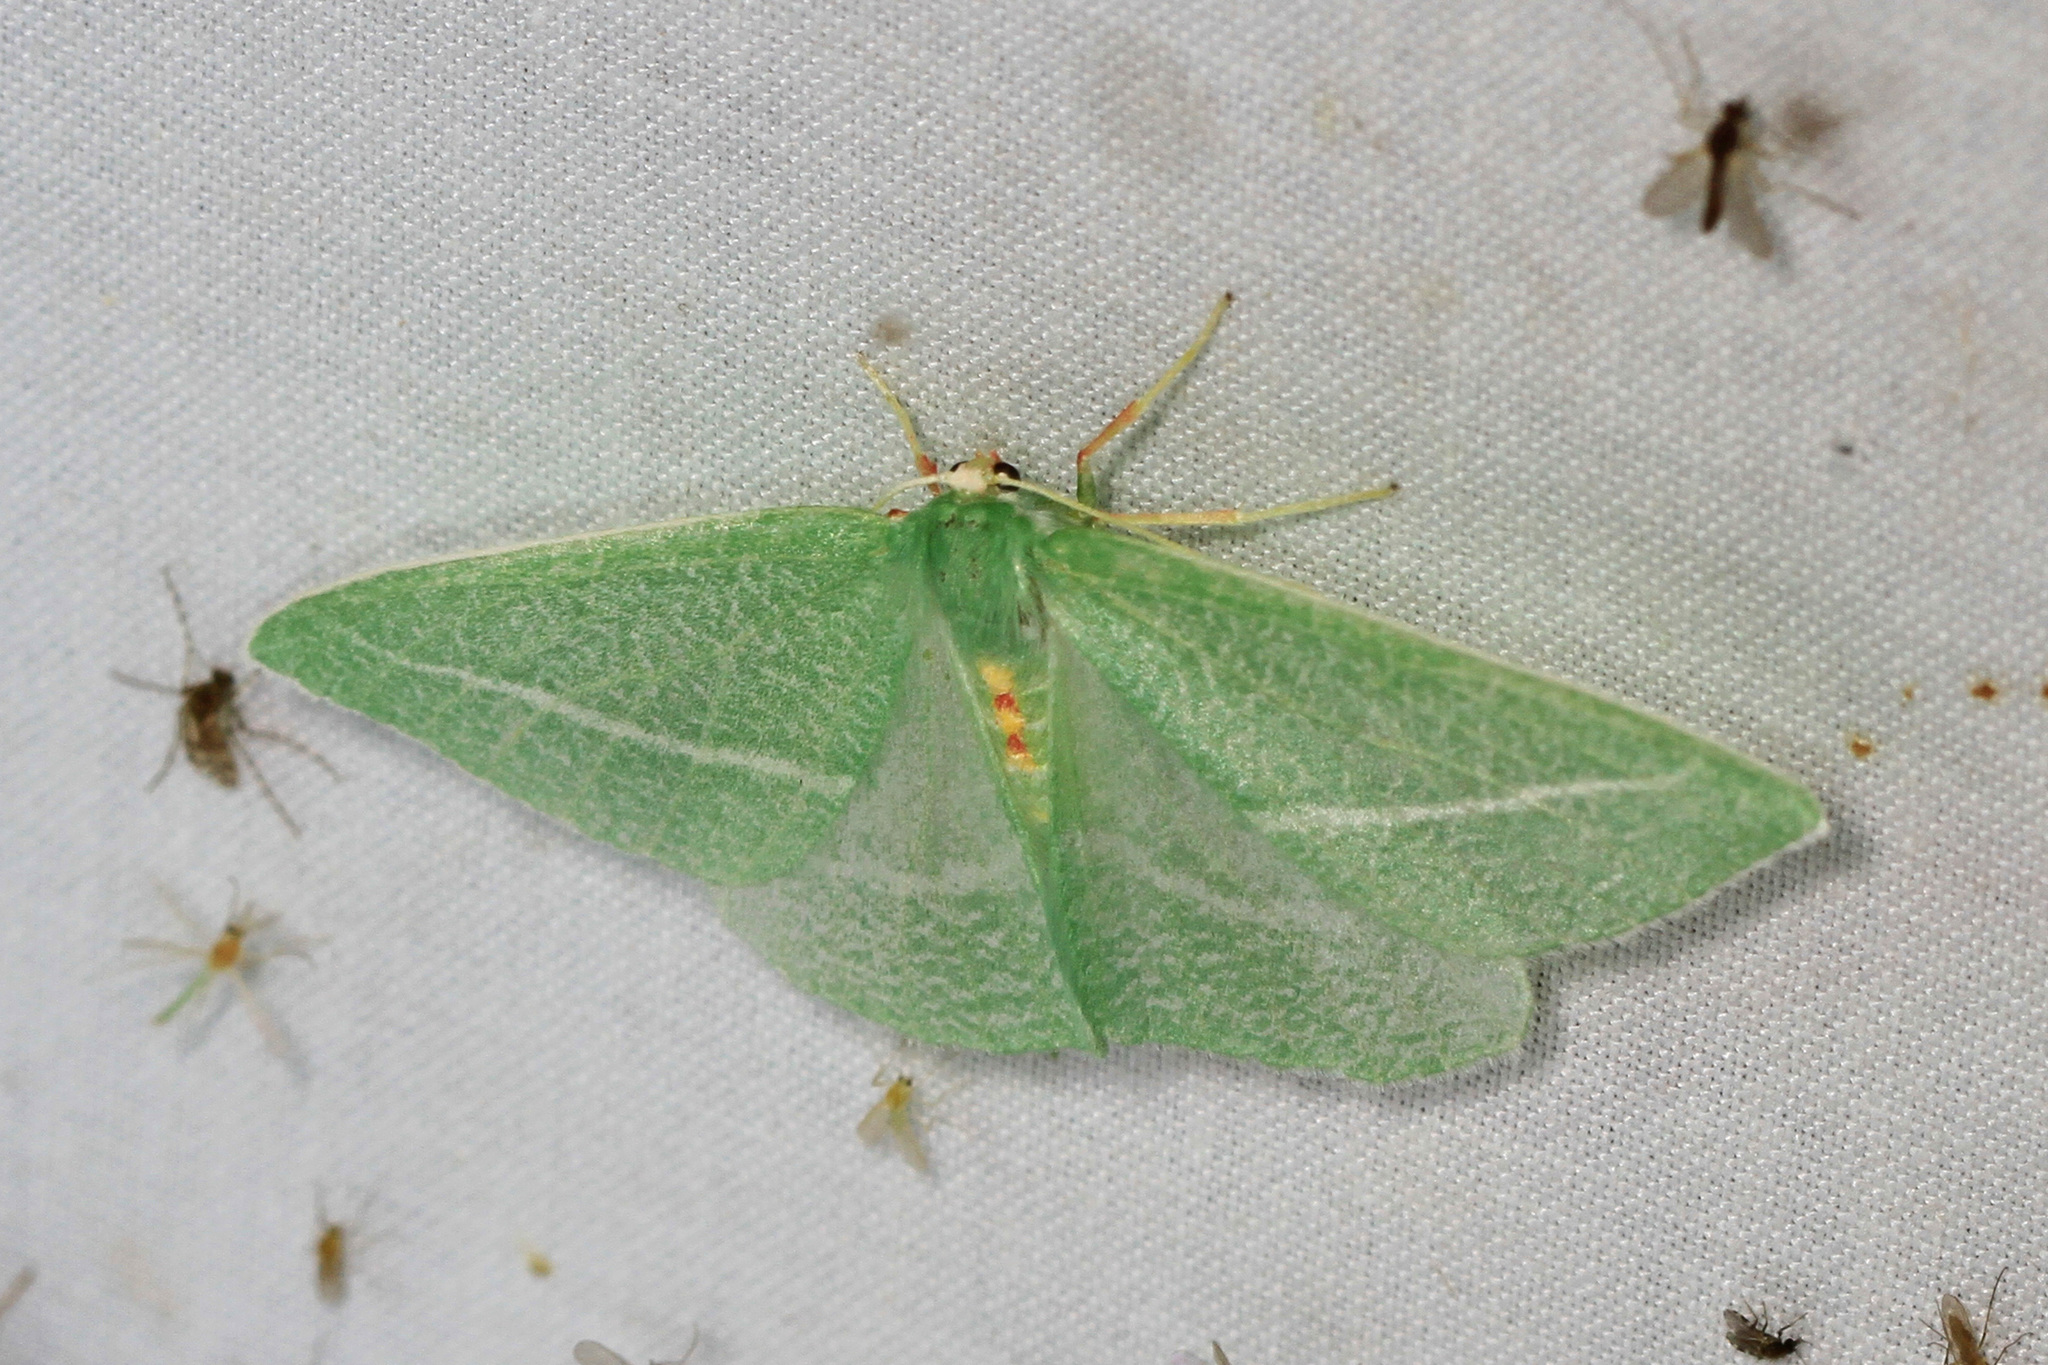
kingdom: Animalia
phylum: Arthropoda
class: Insecta
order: Lepidoptera
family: Geometridae
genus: Chlorosea
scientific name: Chlorosea banksaria
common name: Bank's emerald moth
